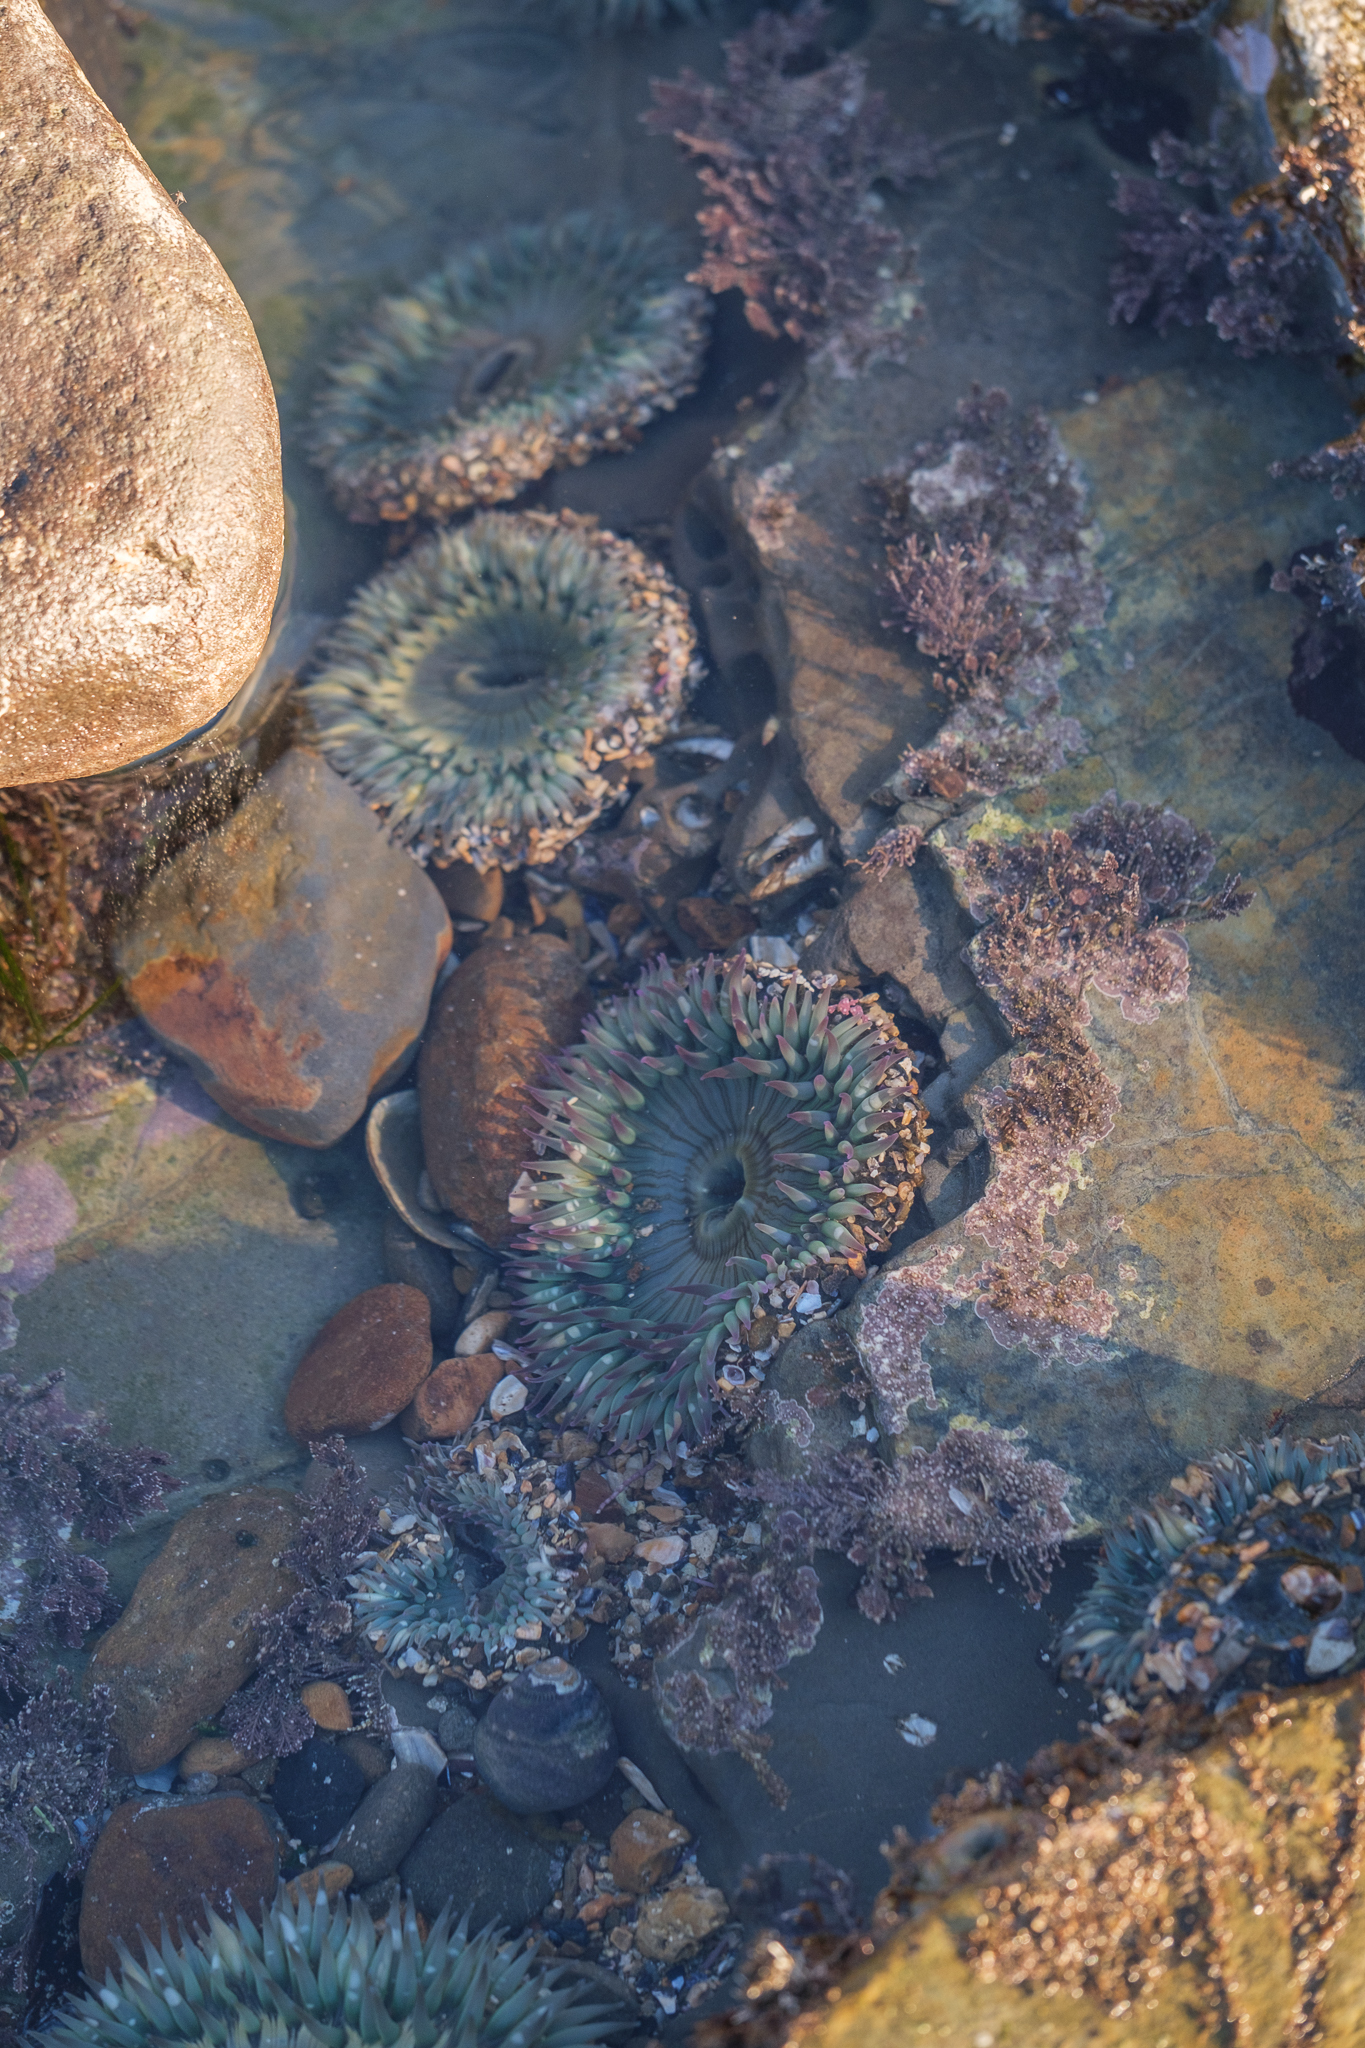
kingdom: Animalia
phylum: Cnidaria
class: Anthozoa
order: Actiniaria
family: Actiniidae
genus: Anthopleura
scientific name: Anthopleura sola
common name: Sun anemone
